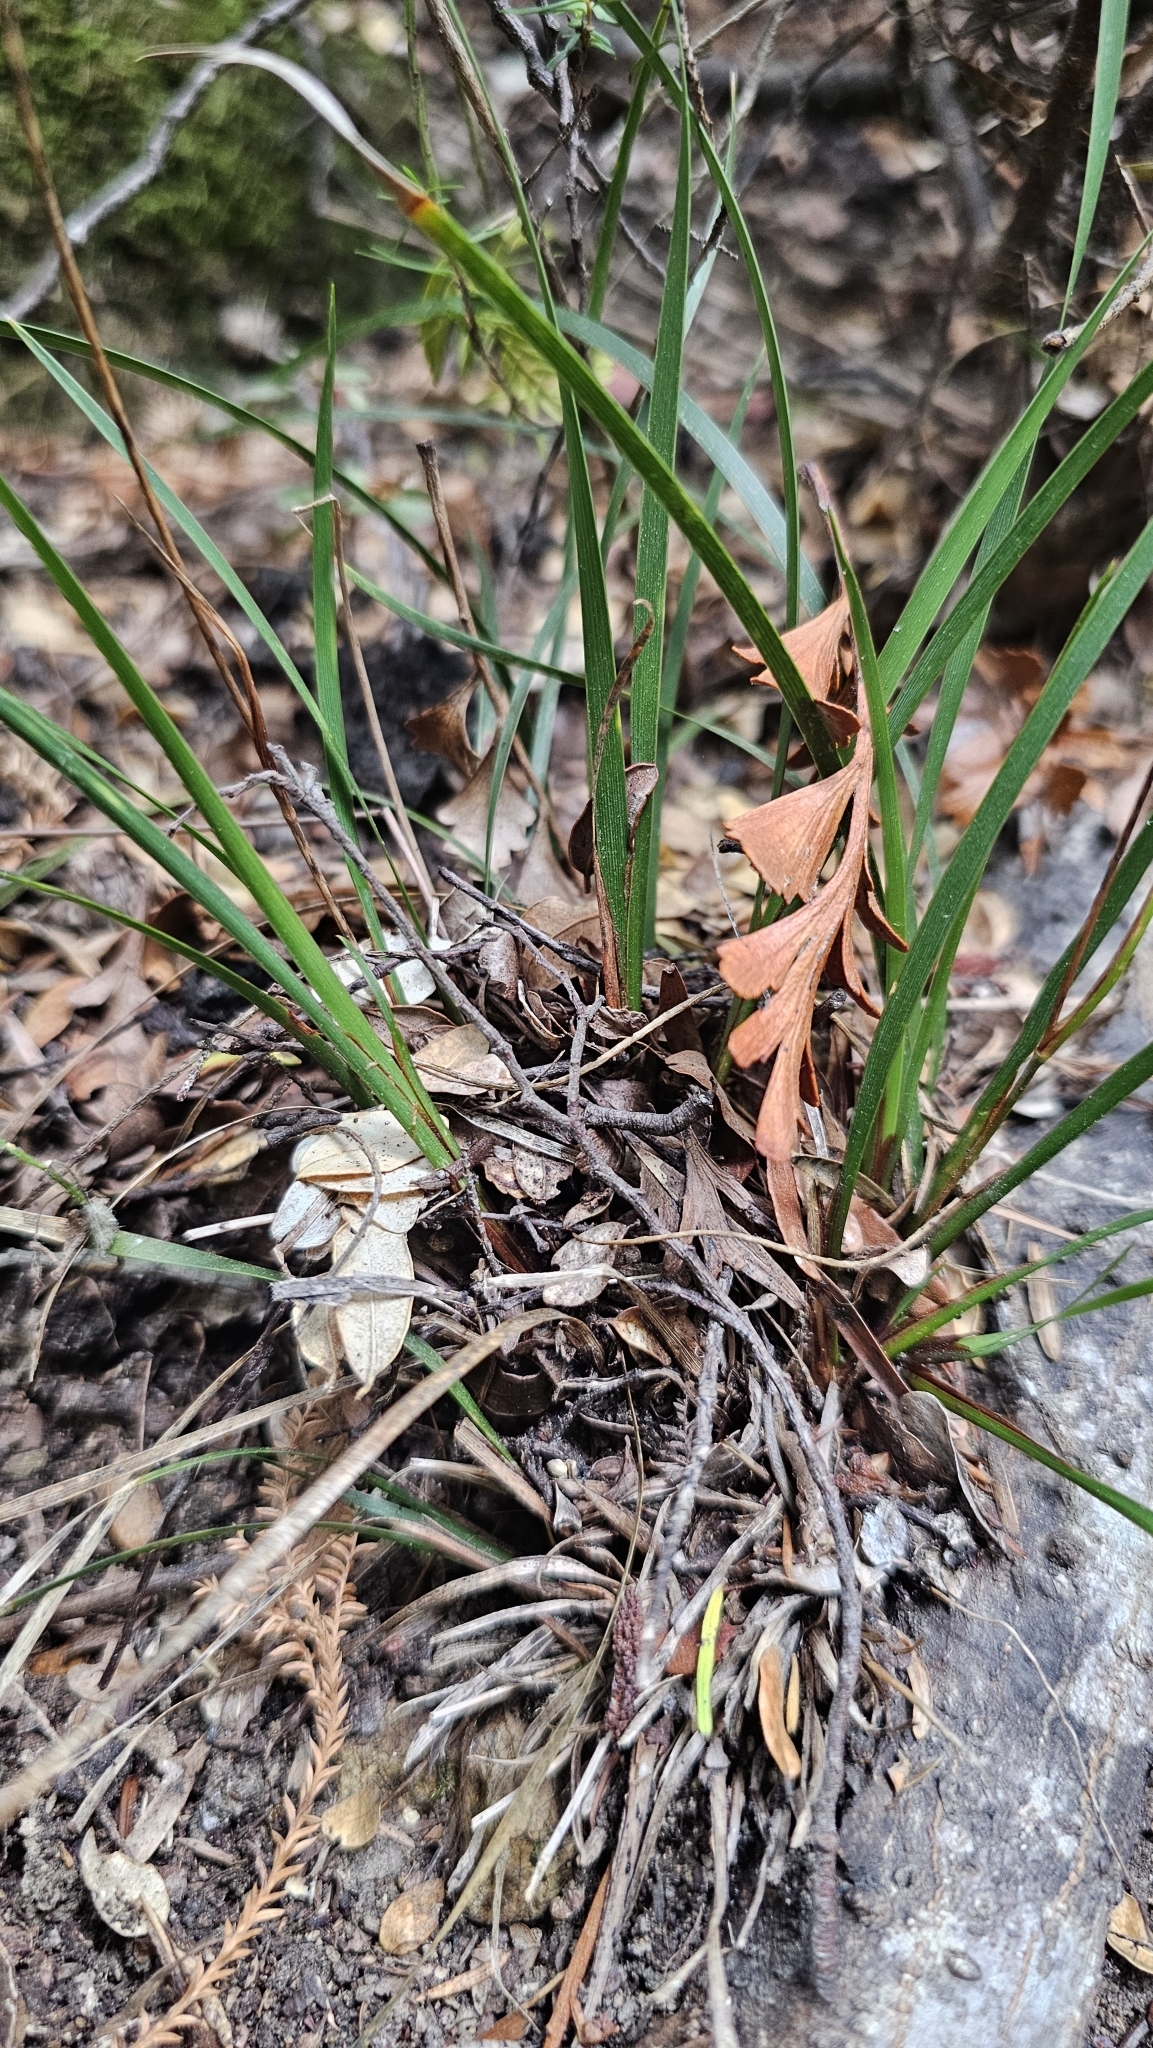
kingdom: Plantae
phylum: Tracheophyta
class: Liliopsida
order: Asparagales
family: Iridaceae
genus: Libertia
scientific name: Libertia mooreae
